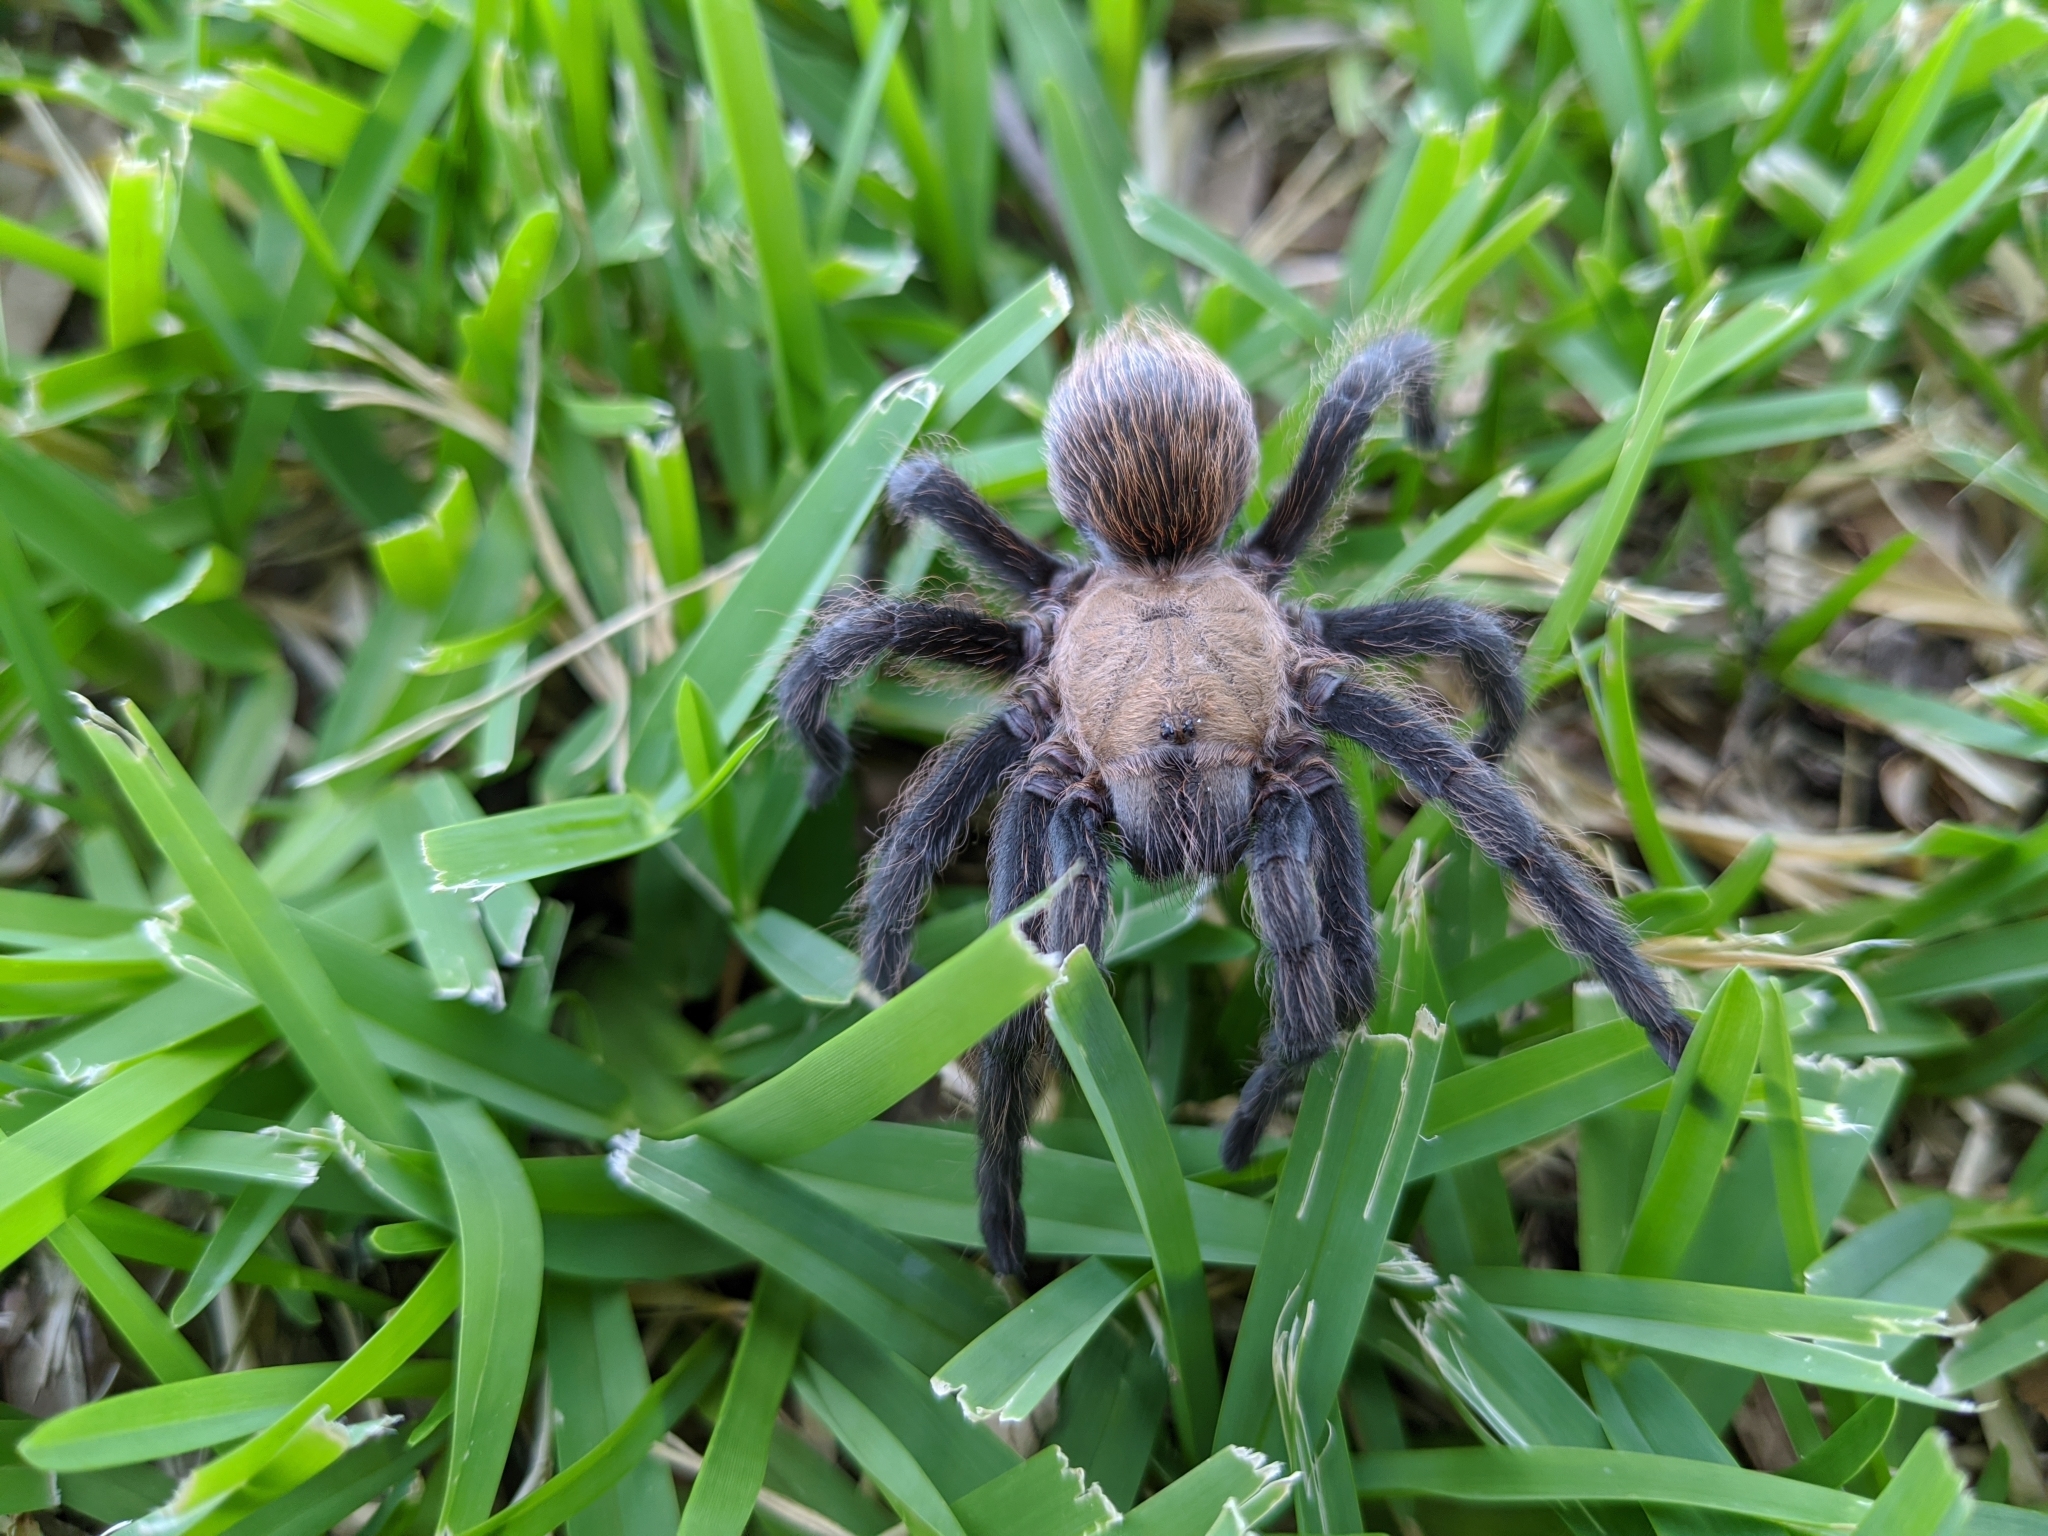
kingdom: Animalia
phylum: Arthropoda
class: Arachnida
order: Araneae
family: Theraphosidae
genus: Aphonopelma
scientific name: Aphonopelma hentzi
